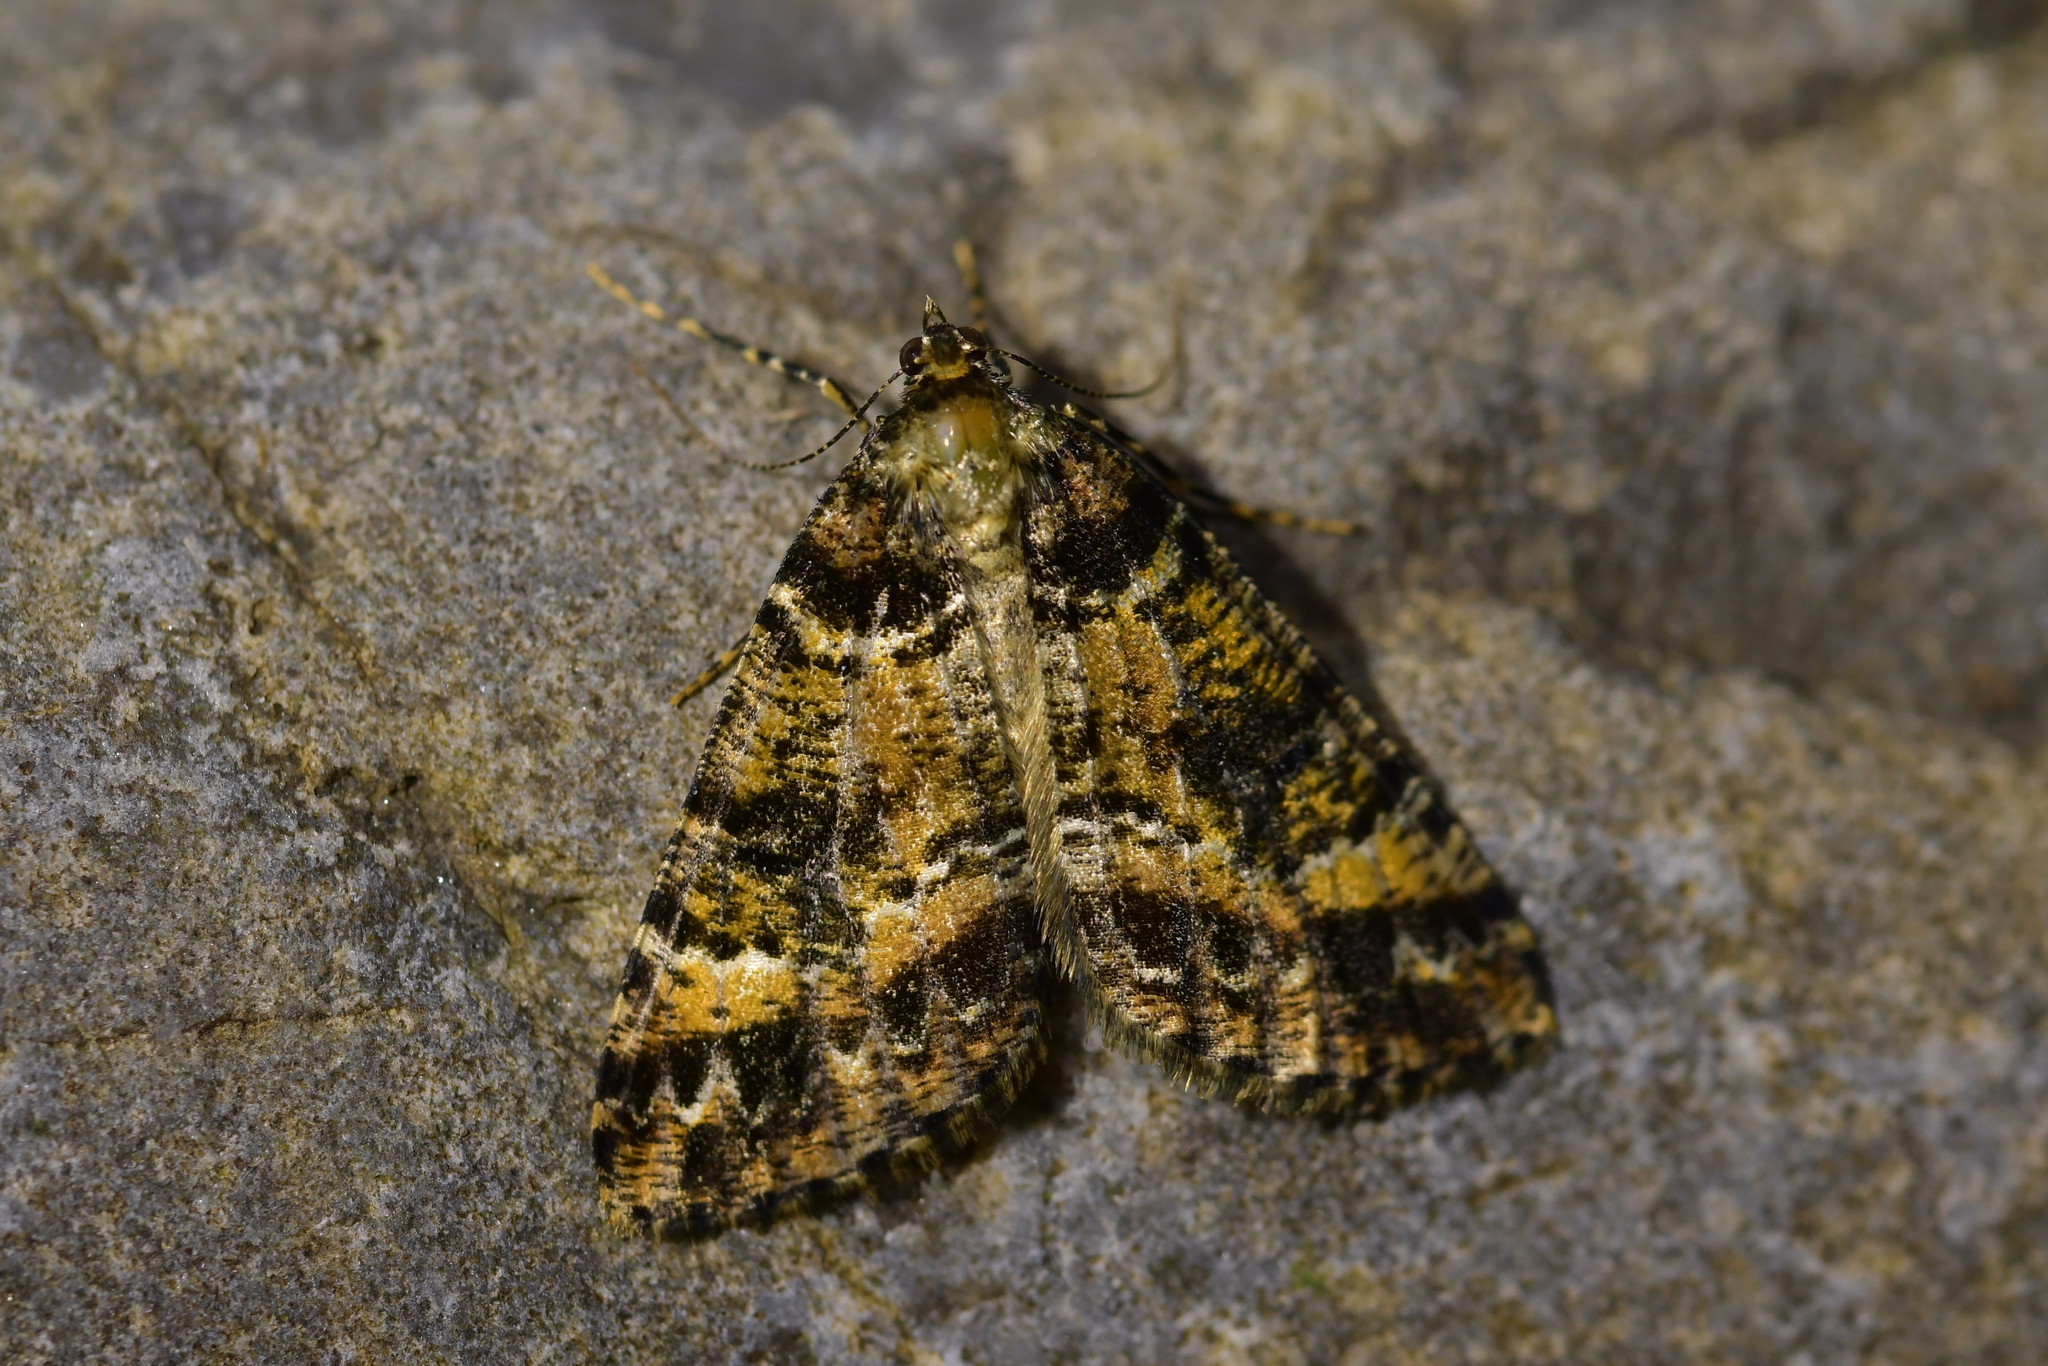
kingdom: Animalia
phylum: Arthropoda
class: Insecta
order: Lepidoptera
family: Geometridae
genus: Pseudocoremia
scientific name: Pseudocoremia productata
